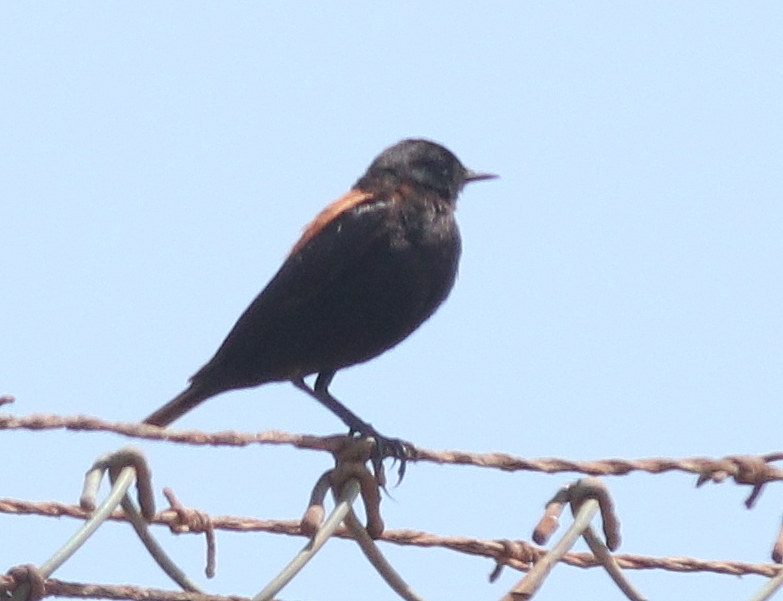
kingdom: Animalia
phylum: Chordata
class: Aves
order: Passeriformes
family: Tyrannidae
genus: Lessonia
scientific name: Lessonia rufa
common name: Austral negrito
